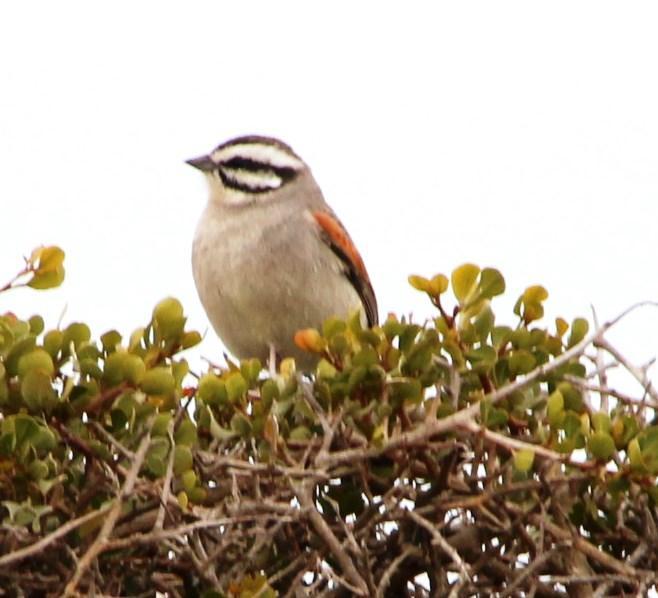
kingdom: Animalia
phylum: Chordata
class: Aves
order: Passeriformes
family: Emberizidae
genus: Emberiza
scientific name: Emberiza capensis
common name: Cape bunting
